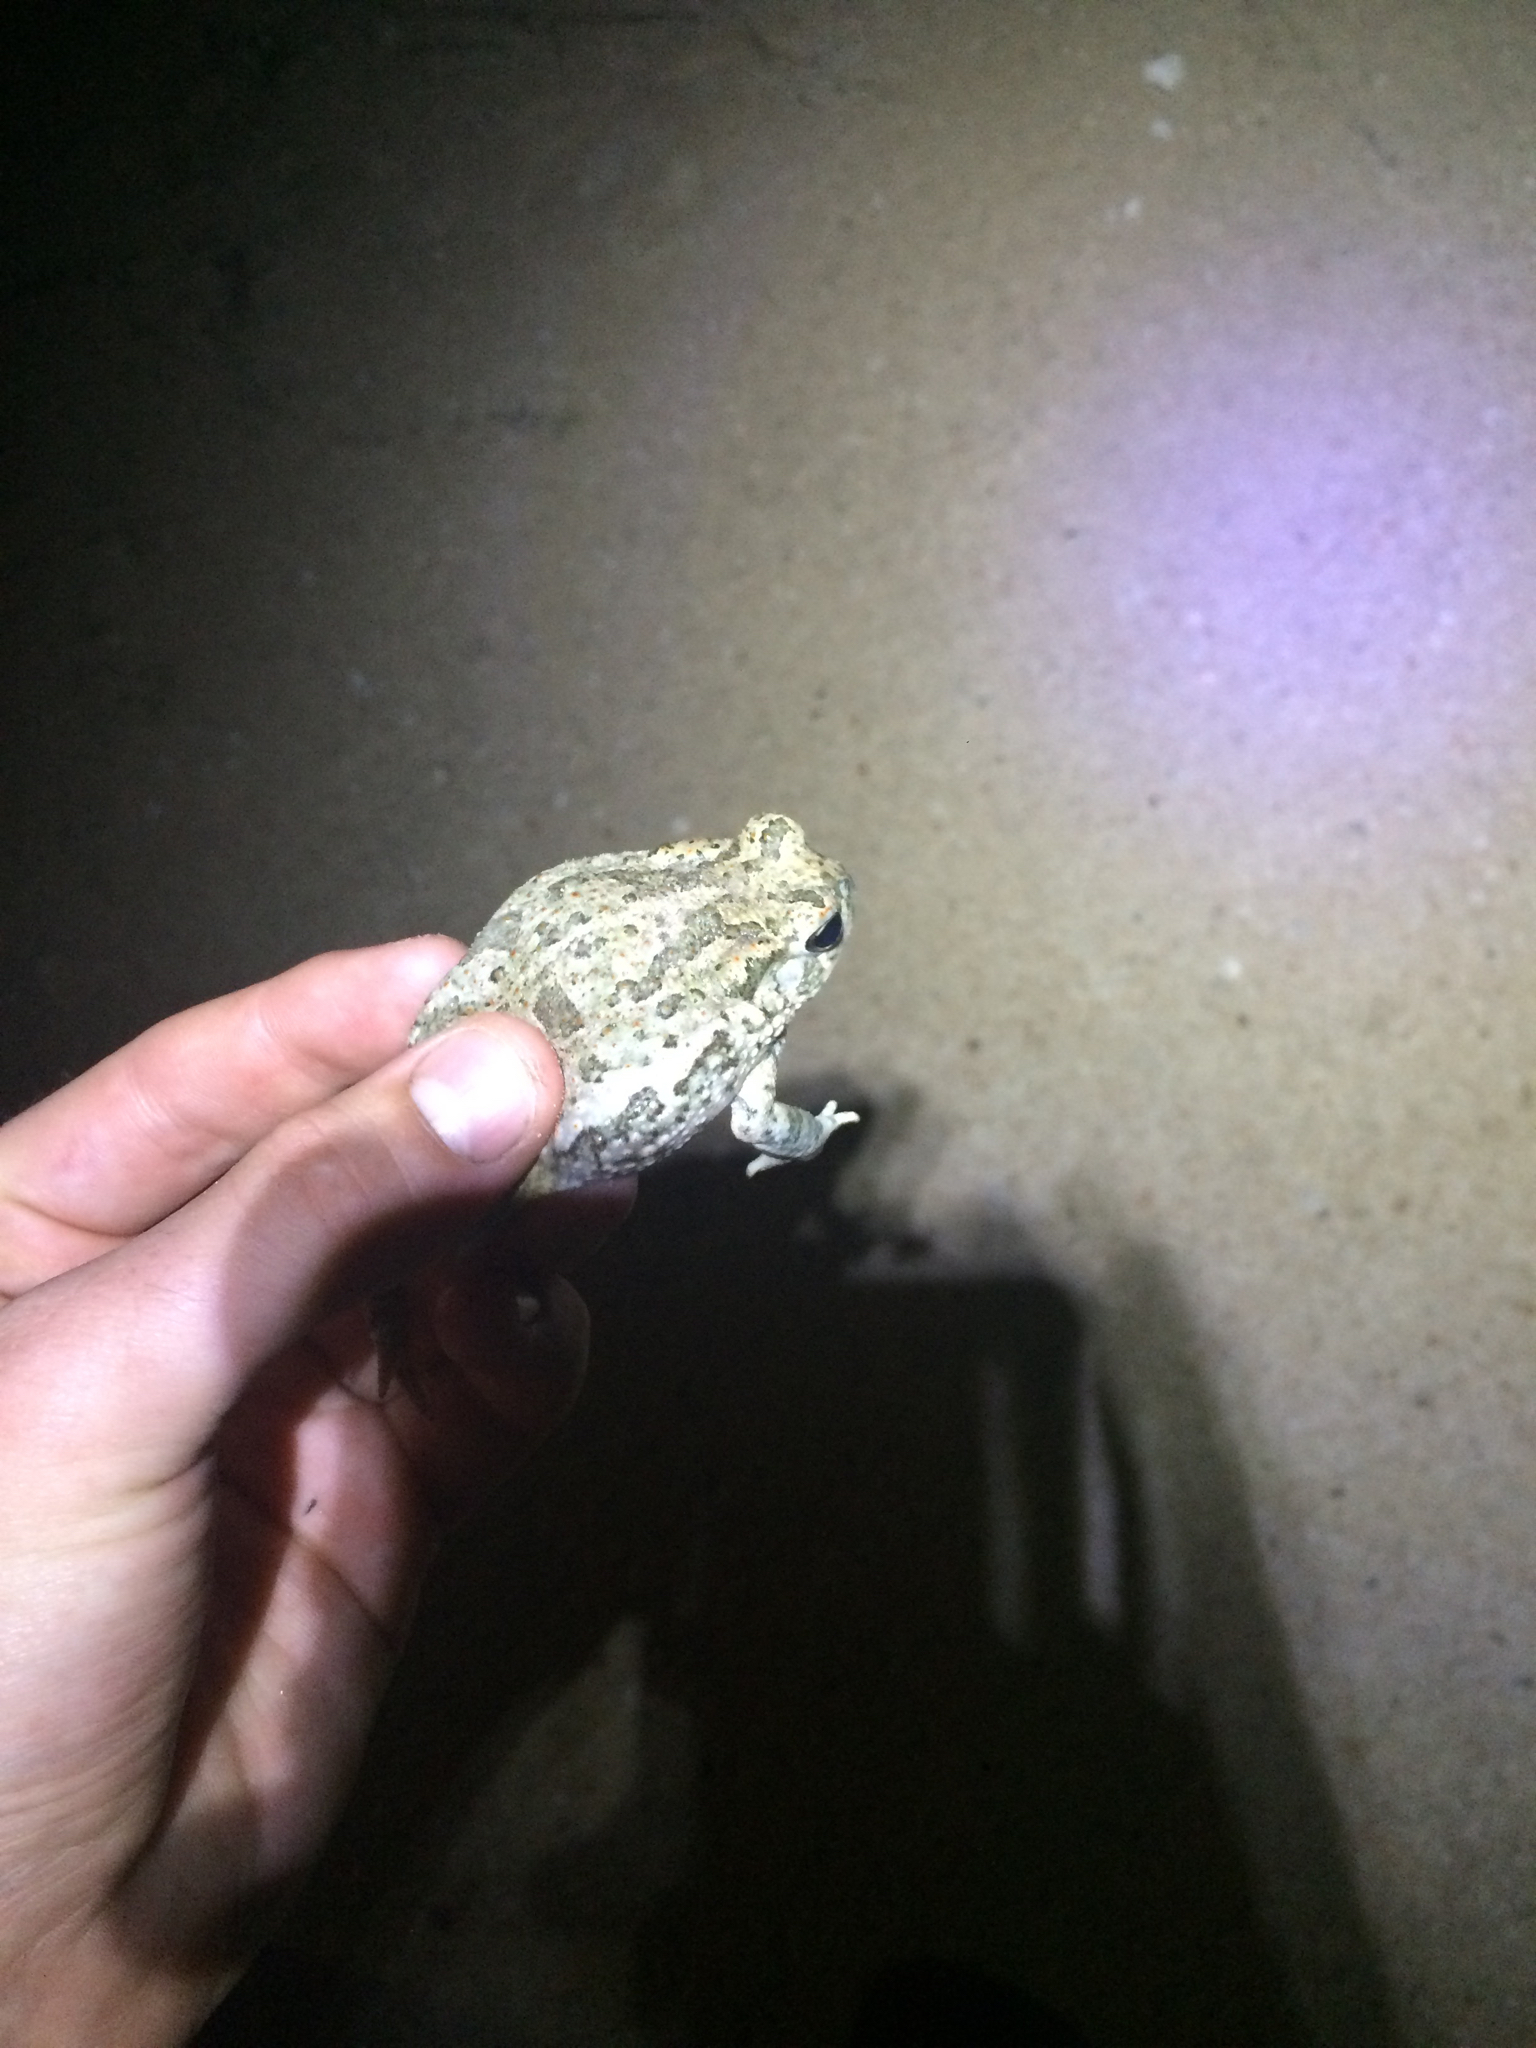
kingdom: Animalia
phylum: Chordata
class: Amphibia
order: Anura
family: Bufonidae
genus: Anaxyrus
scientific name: Anaxyrus speciosus
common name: Texas toad
